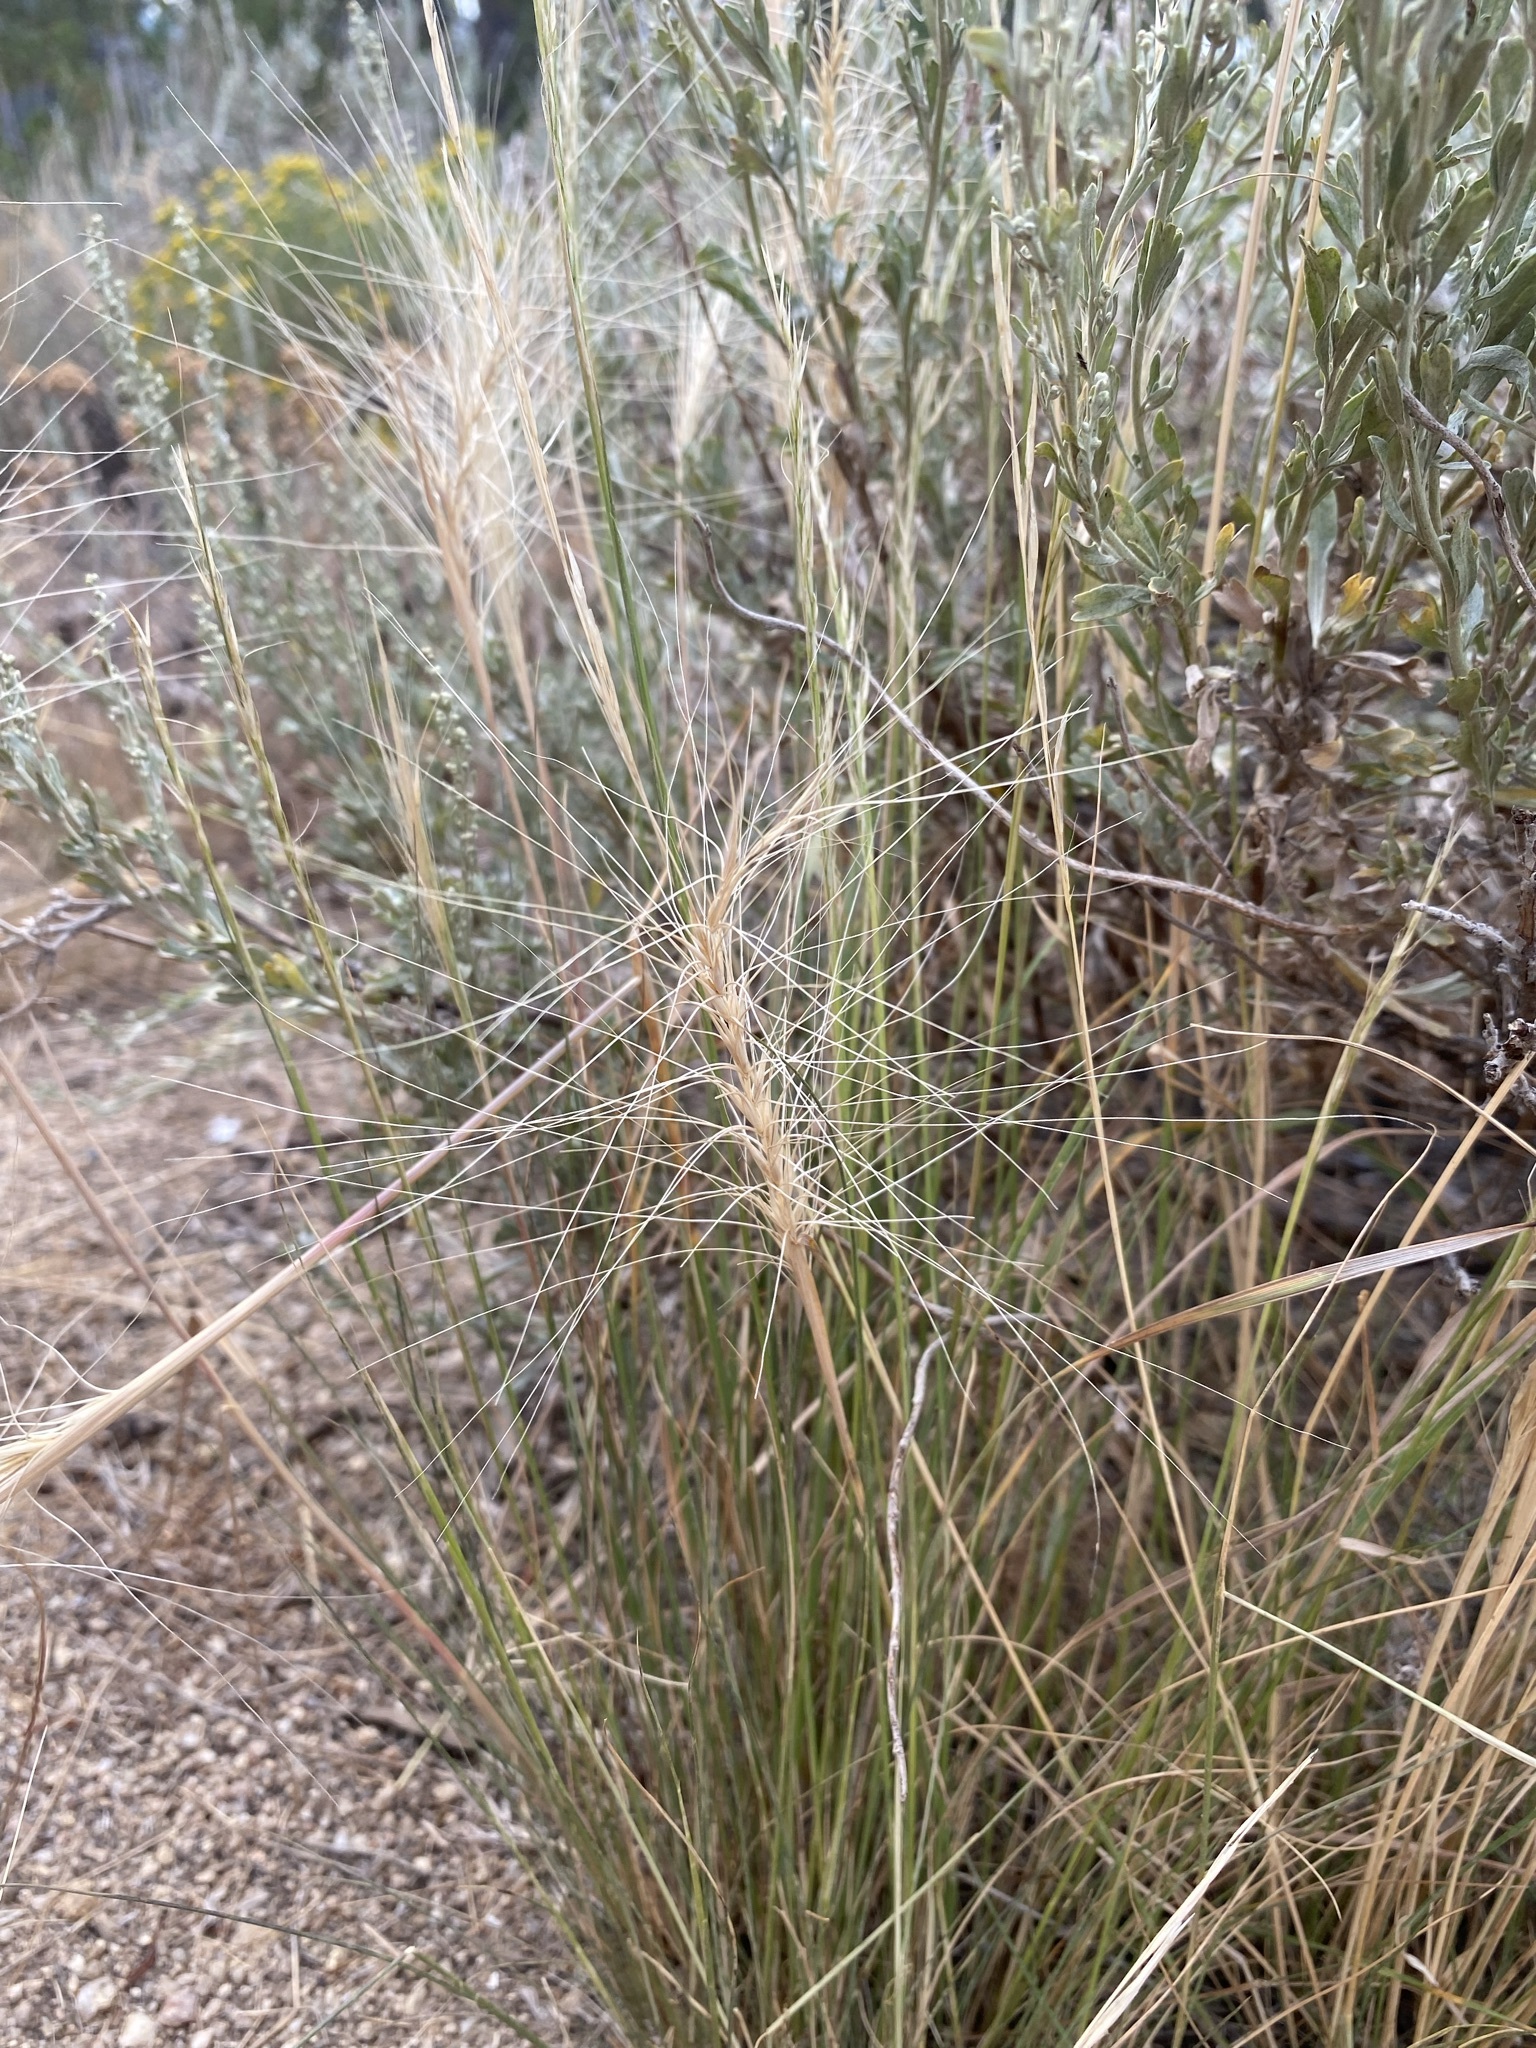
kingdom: Plantae
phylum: Tracheophyta
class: Liliopsida
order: Poales
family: Poaceae
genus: Elymus
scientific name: Elymus elymoides
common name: Bottlebrush squirreltail
